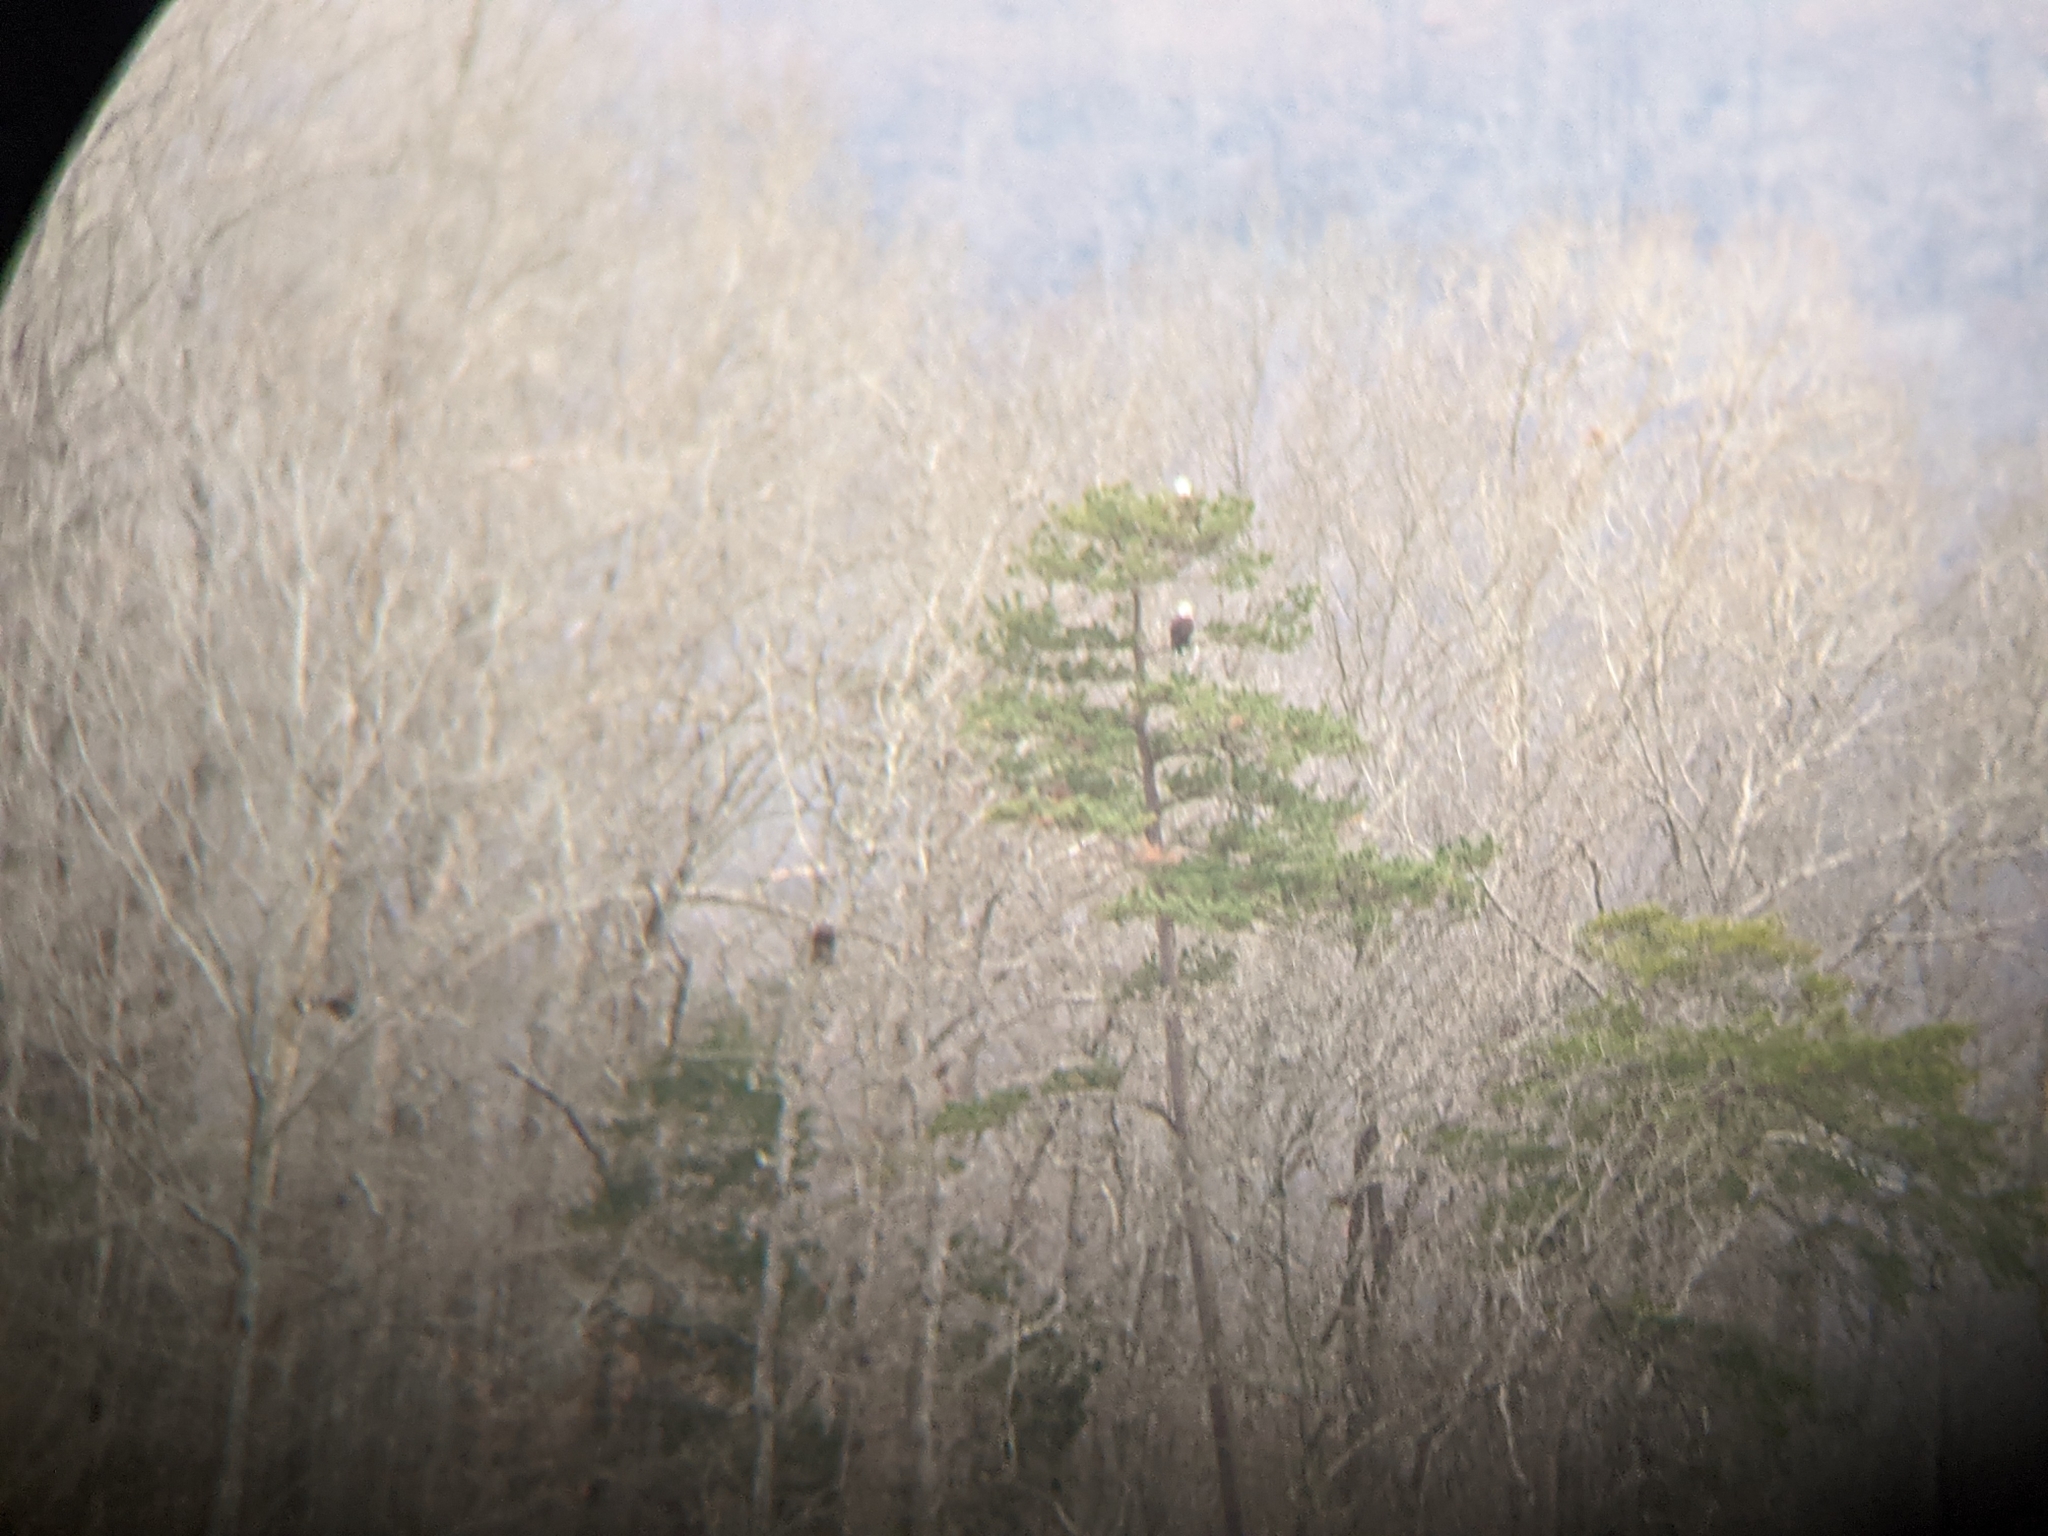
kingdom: Animalia
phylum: Chordata
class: Aves
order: Accipitriformes
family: Accipitridae
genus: Haliaeetus
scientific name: Haliaeetus leucocephalus
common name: Bald eagle
